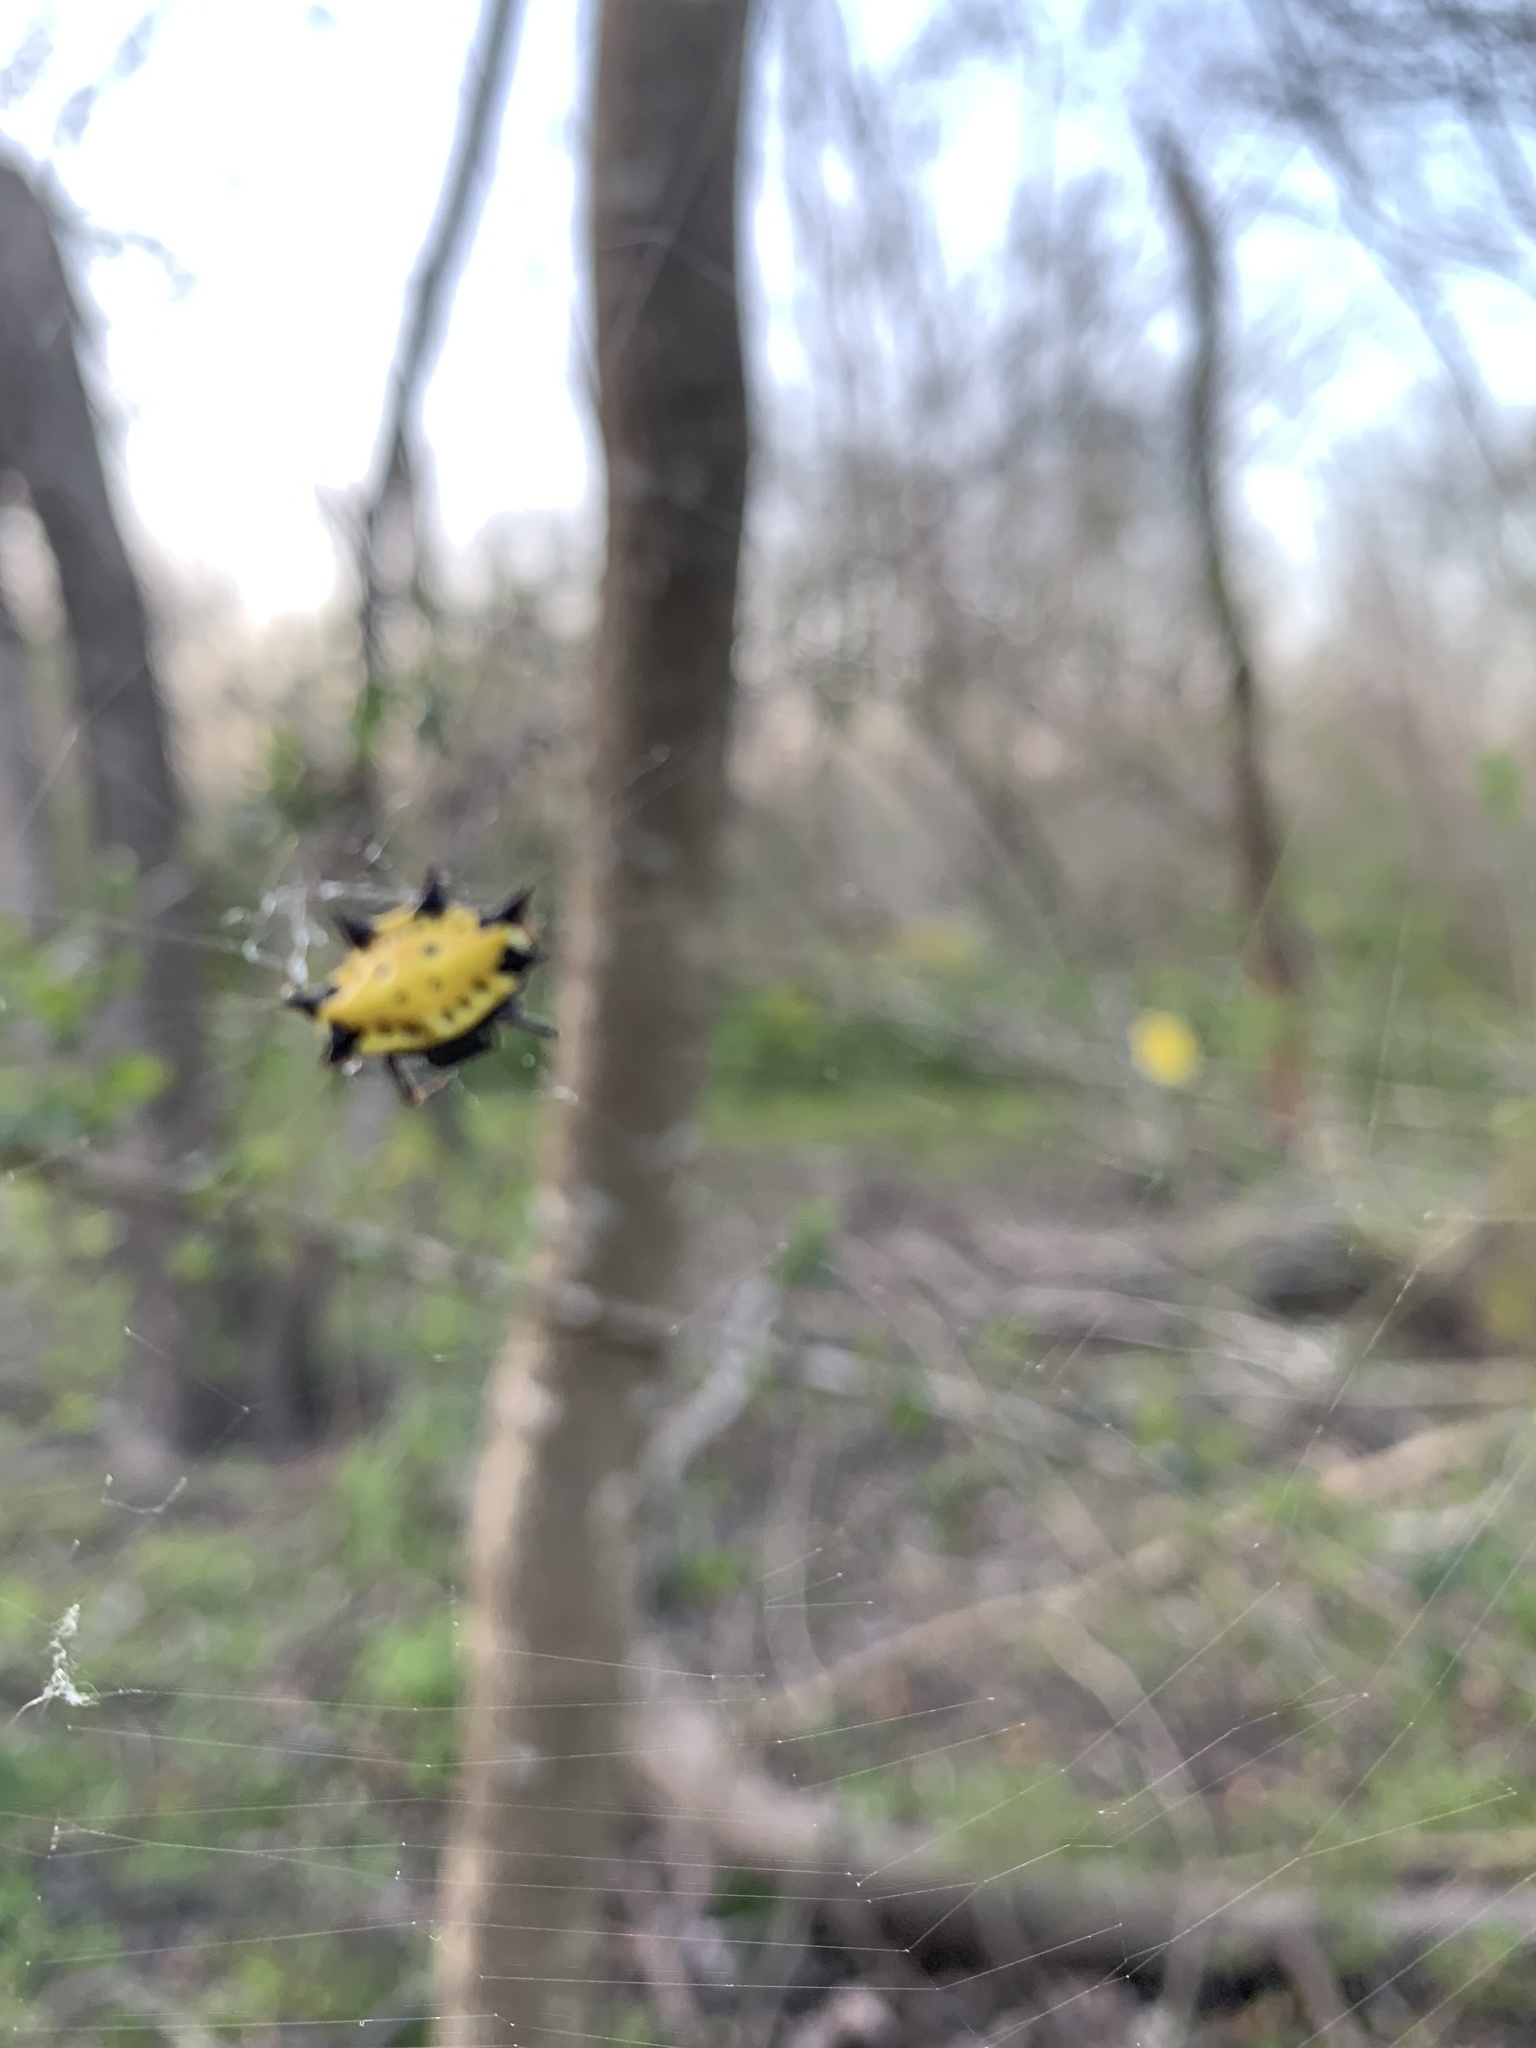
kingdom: Animalia
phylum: Arthropoda
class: Arachnida
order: Araneae
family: Araneidae
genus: Gasteracantha
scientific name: Gasteracantha cancriformis
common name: Orb weavers
